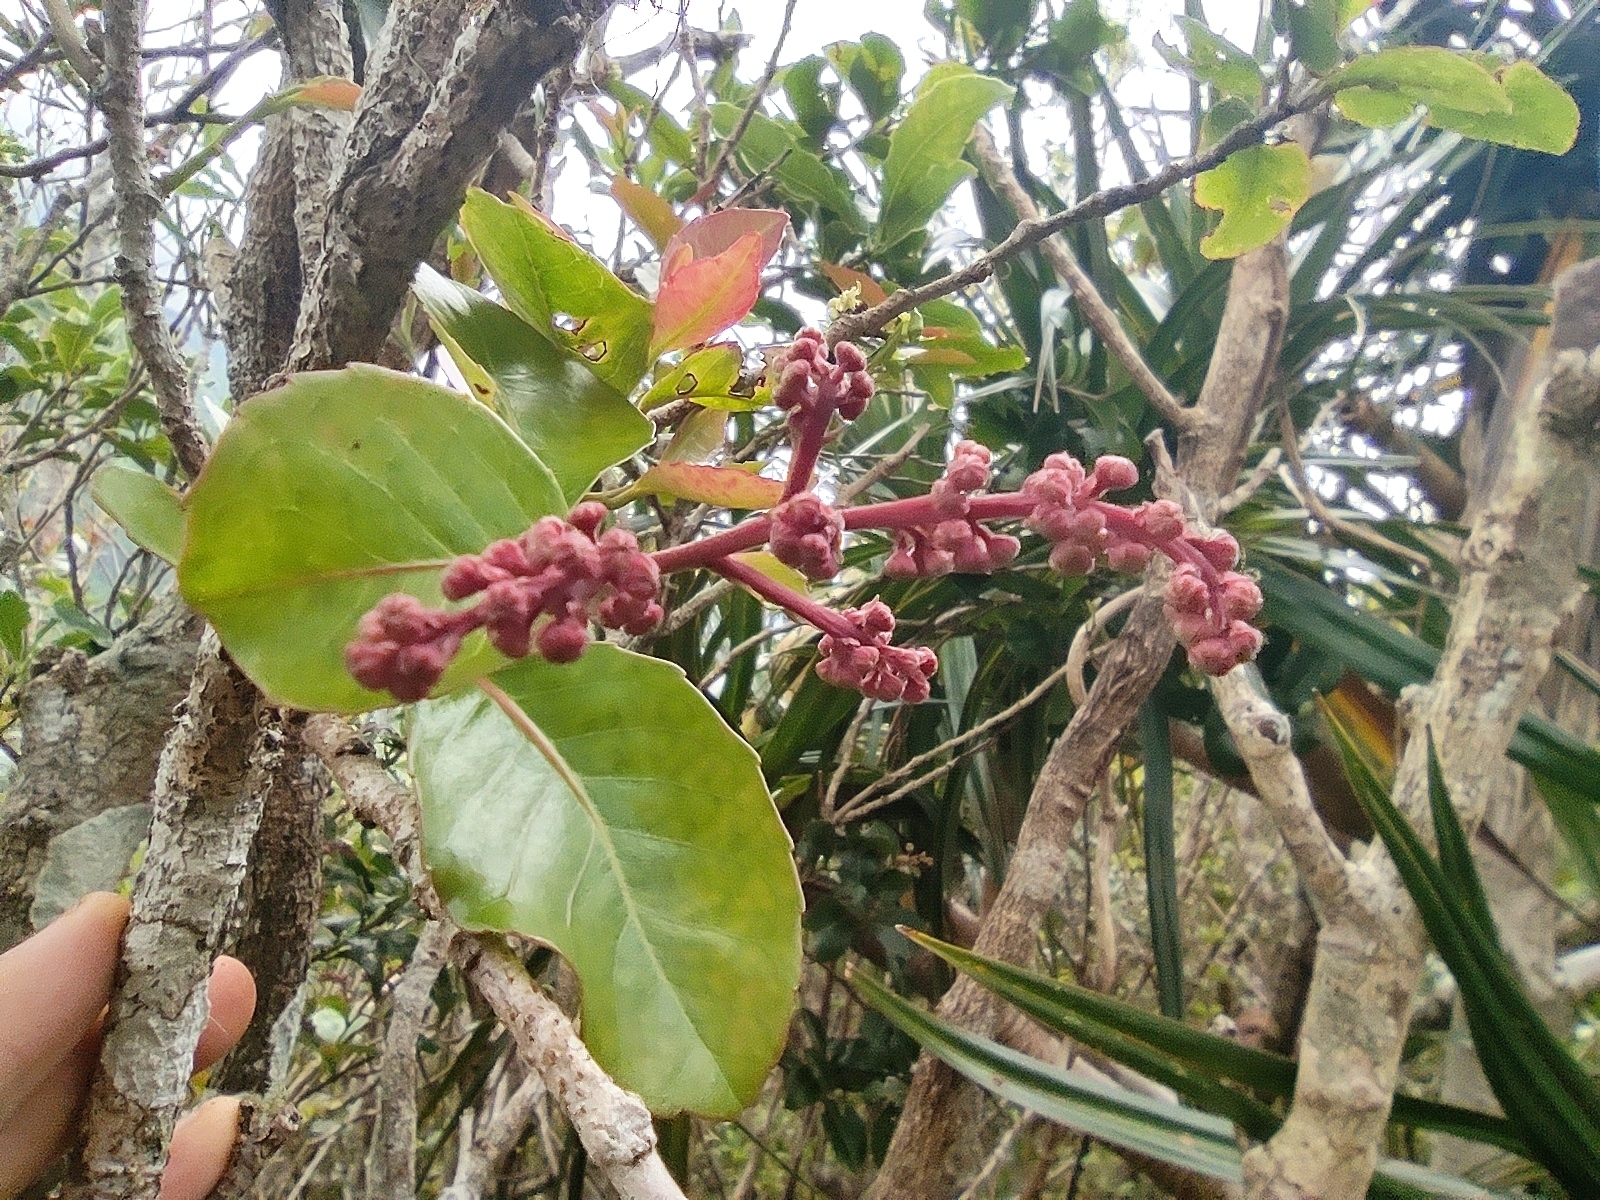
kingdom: Plantae
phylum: Tracheophyta
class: Magnoliopsida
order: Malpighiales
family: Salicaceae
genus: Homalium
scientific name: Homalium erianthum
